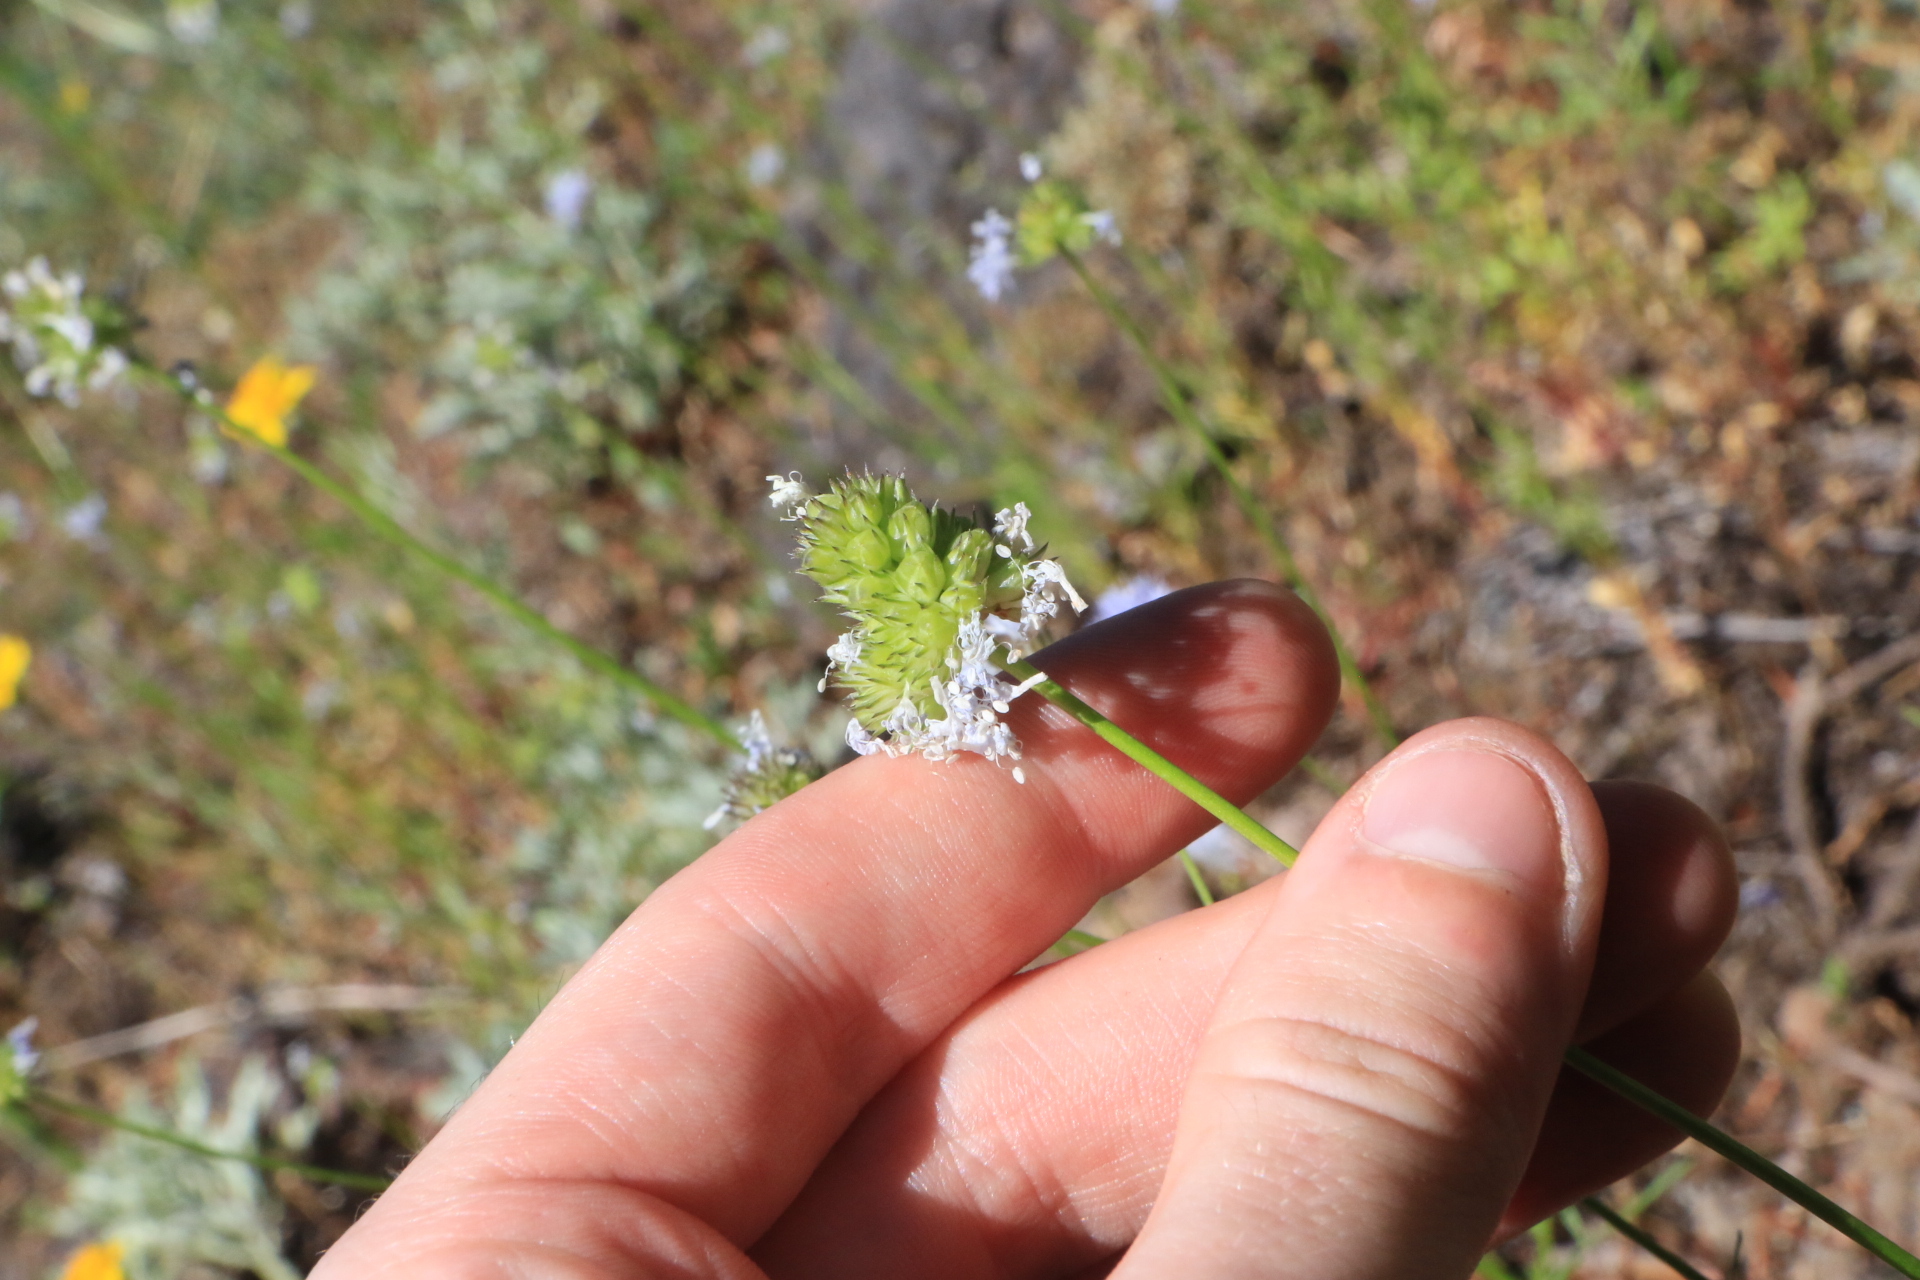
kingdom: Plantae
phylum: Tracheophyta
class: Magnoliopsida
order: Ericales
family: Polemoniaceae
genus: Gilia
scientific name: Gilia capitata
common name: Bluehead gilia
